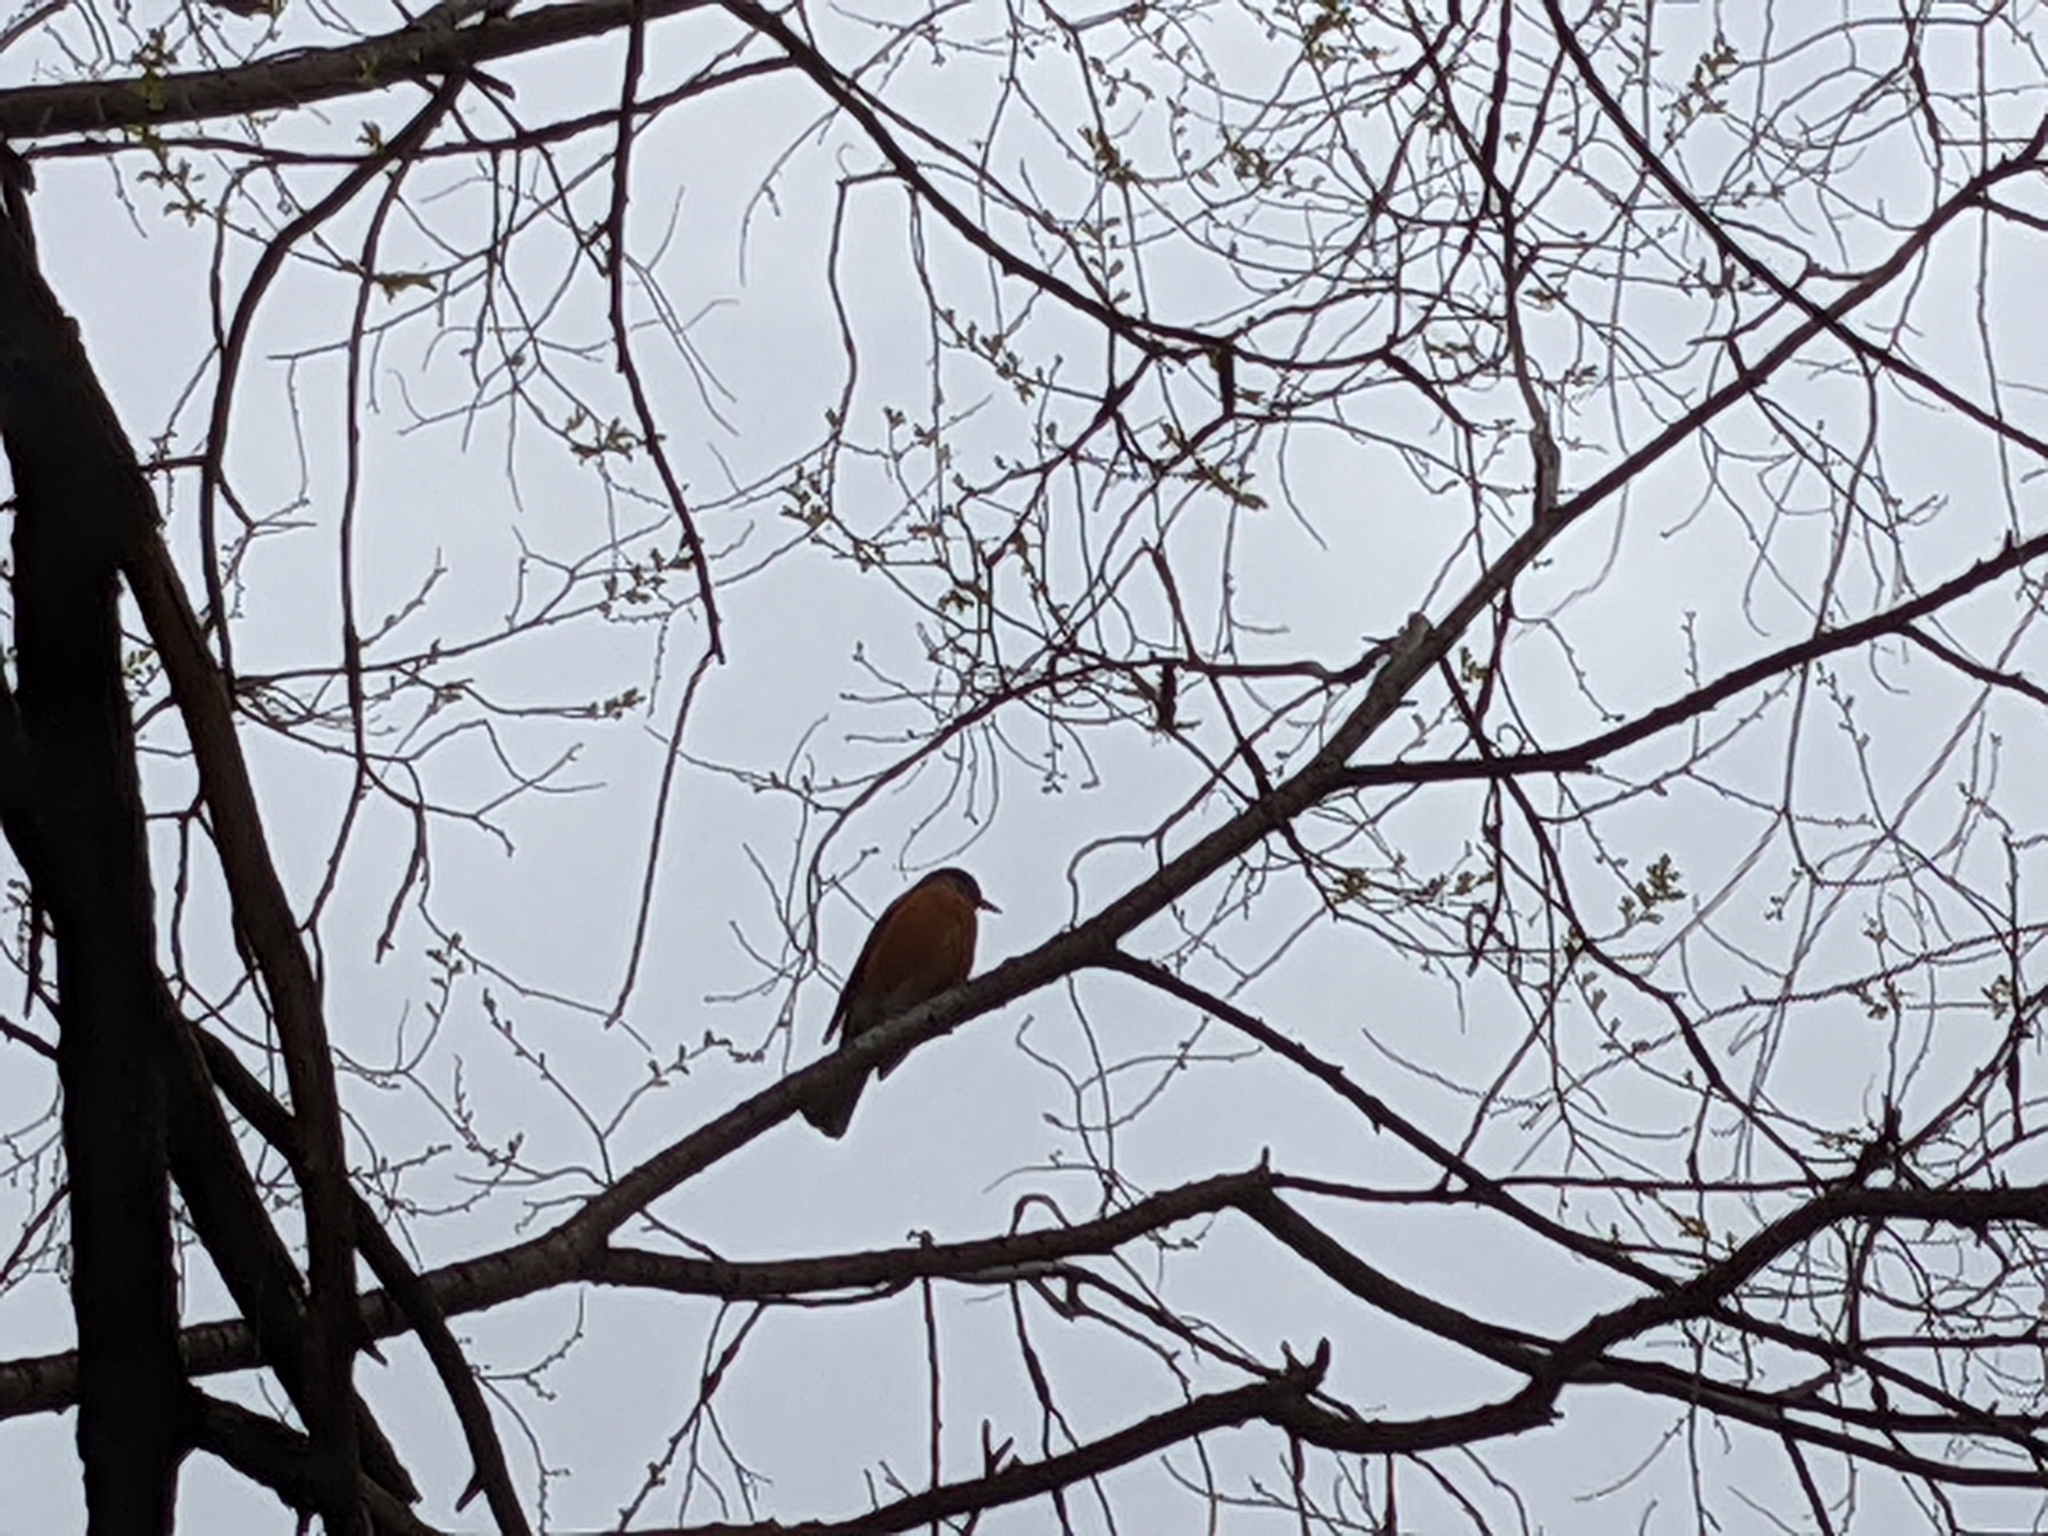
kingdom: Animalia
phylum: Chordata
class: Aves
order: Passeriformes
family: Turdidae
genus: Turdus
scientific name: Turdus migratorius
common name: American robin
